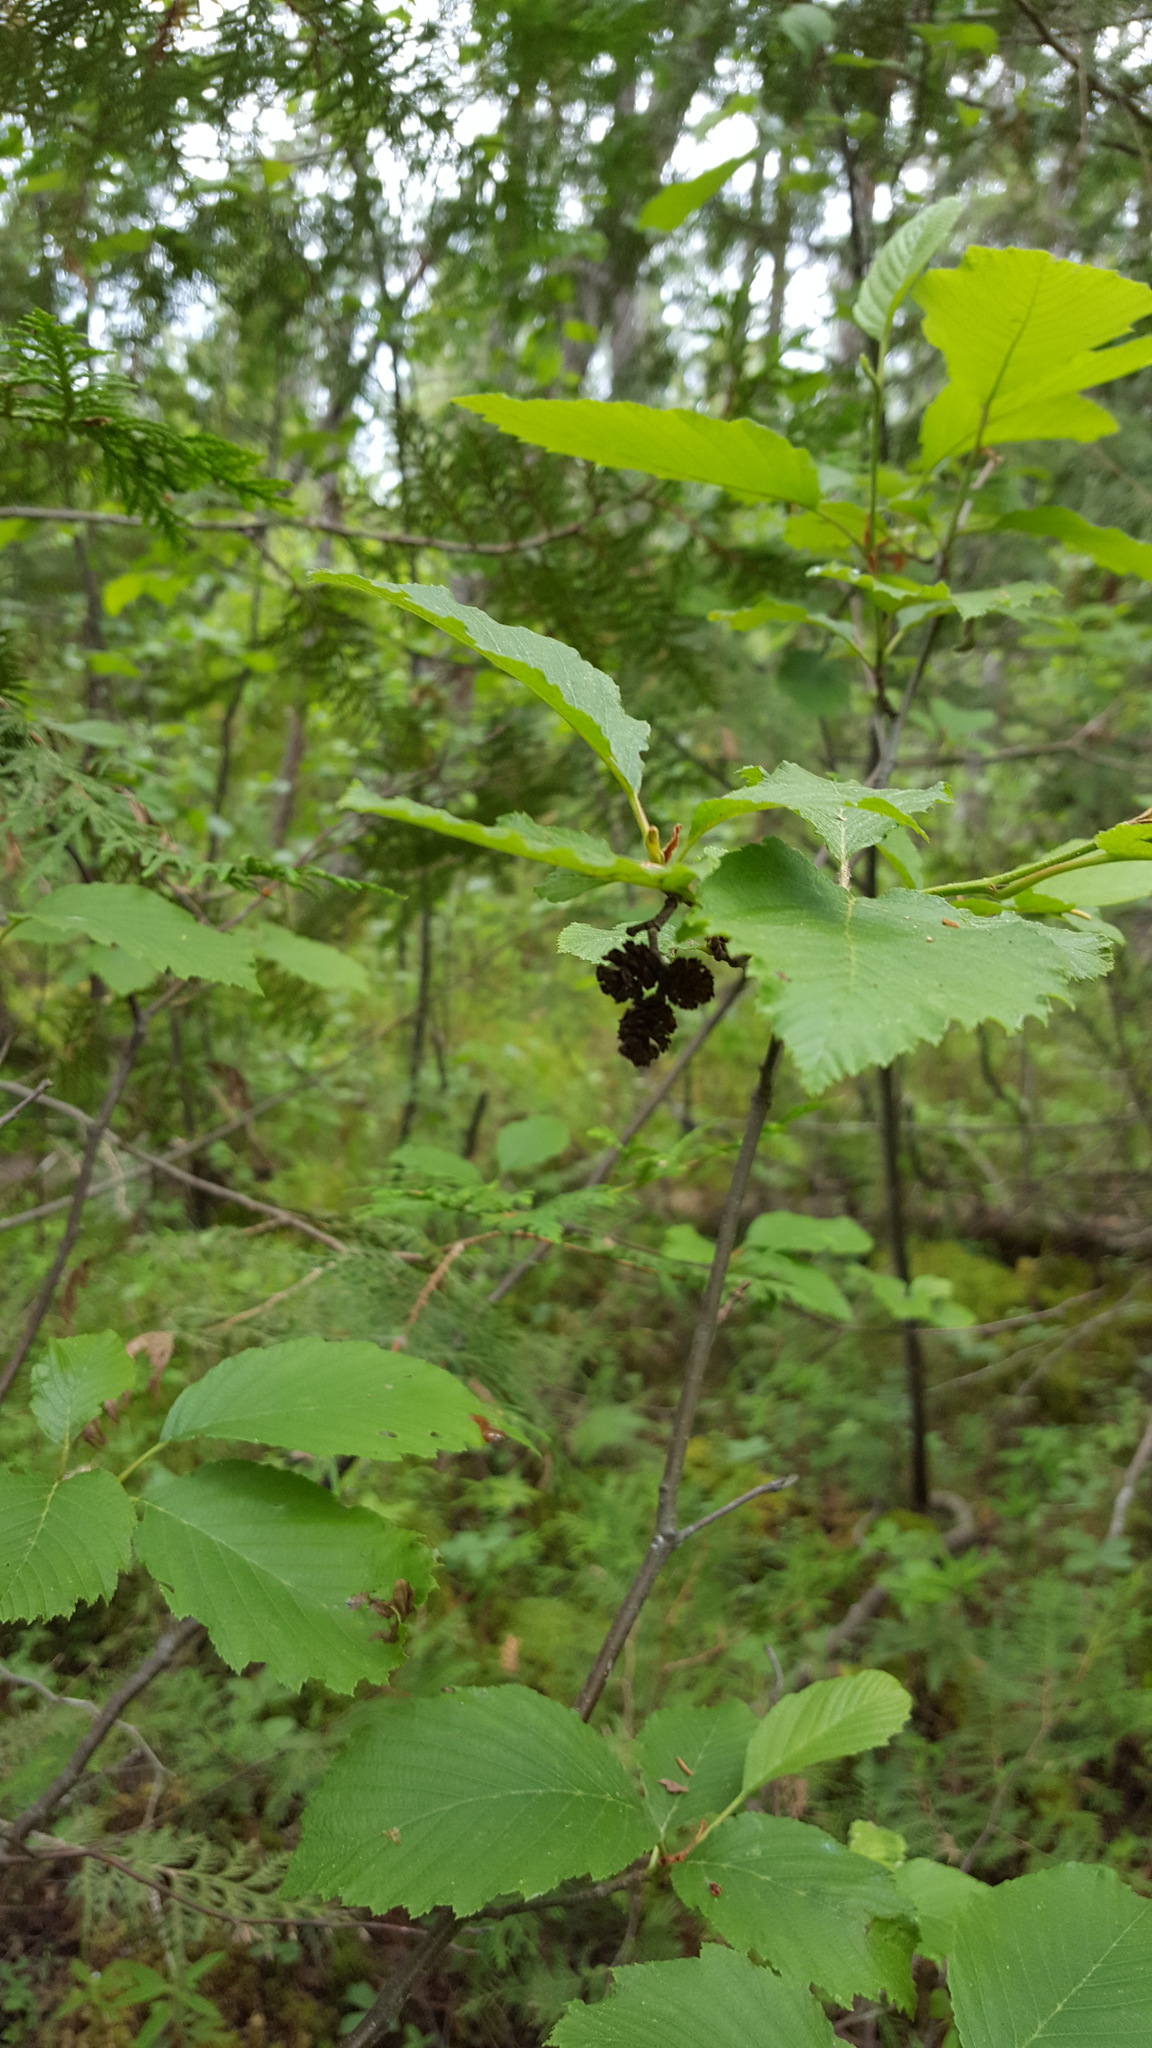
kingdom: Plantae
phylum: Tracheophyta
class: Magnoliopsida
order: Fagales
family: Betulaceae
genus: Alnus
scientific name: Alnus incana
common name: Grey alder
